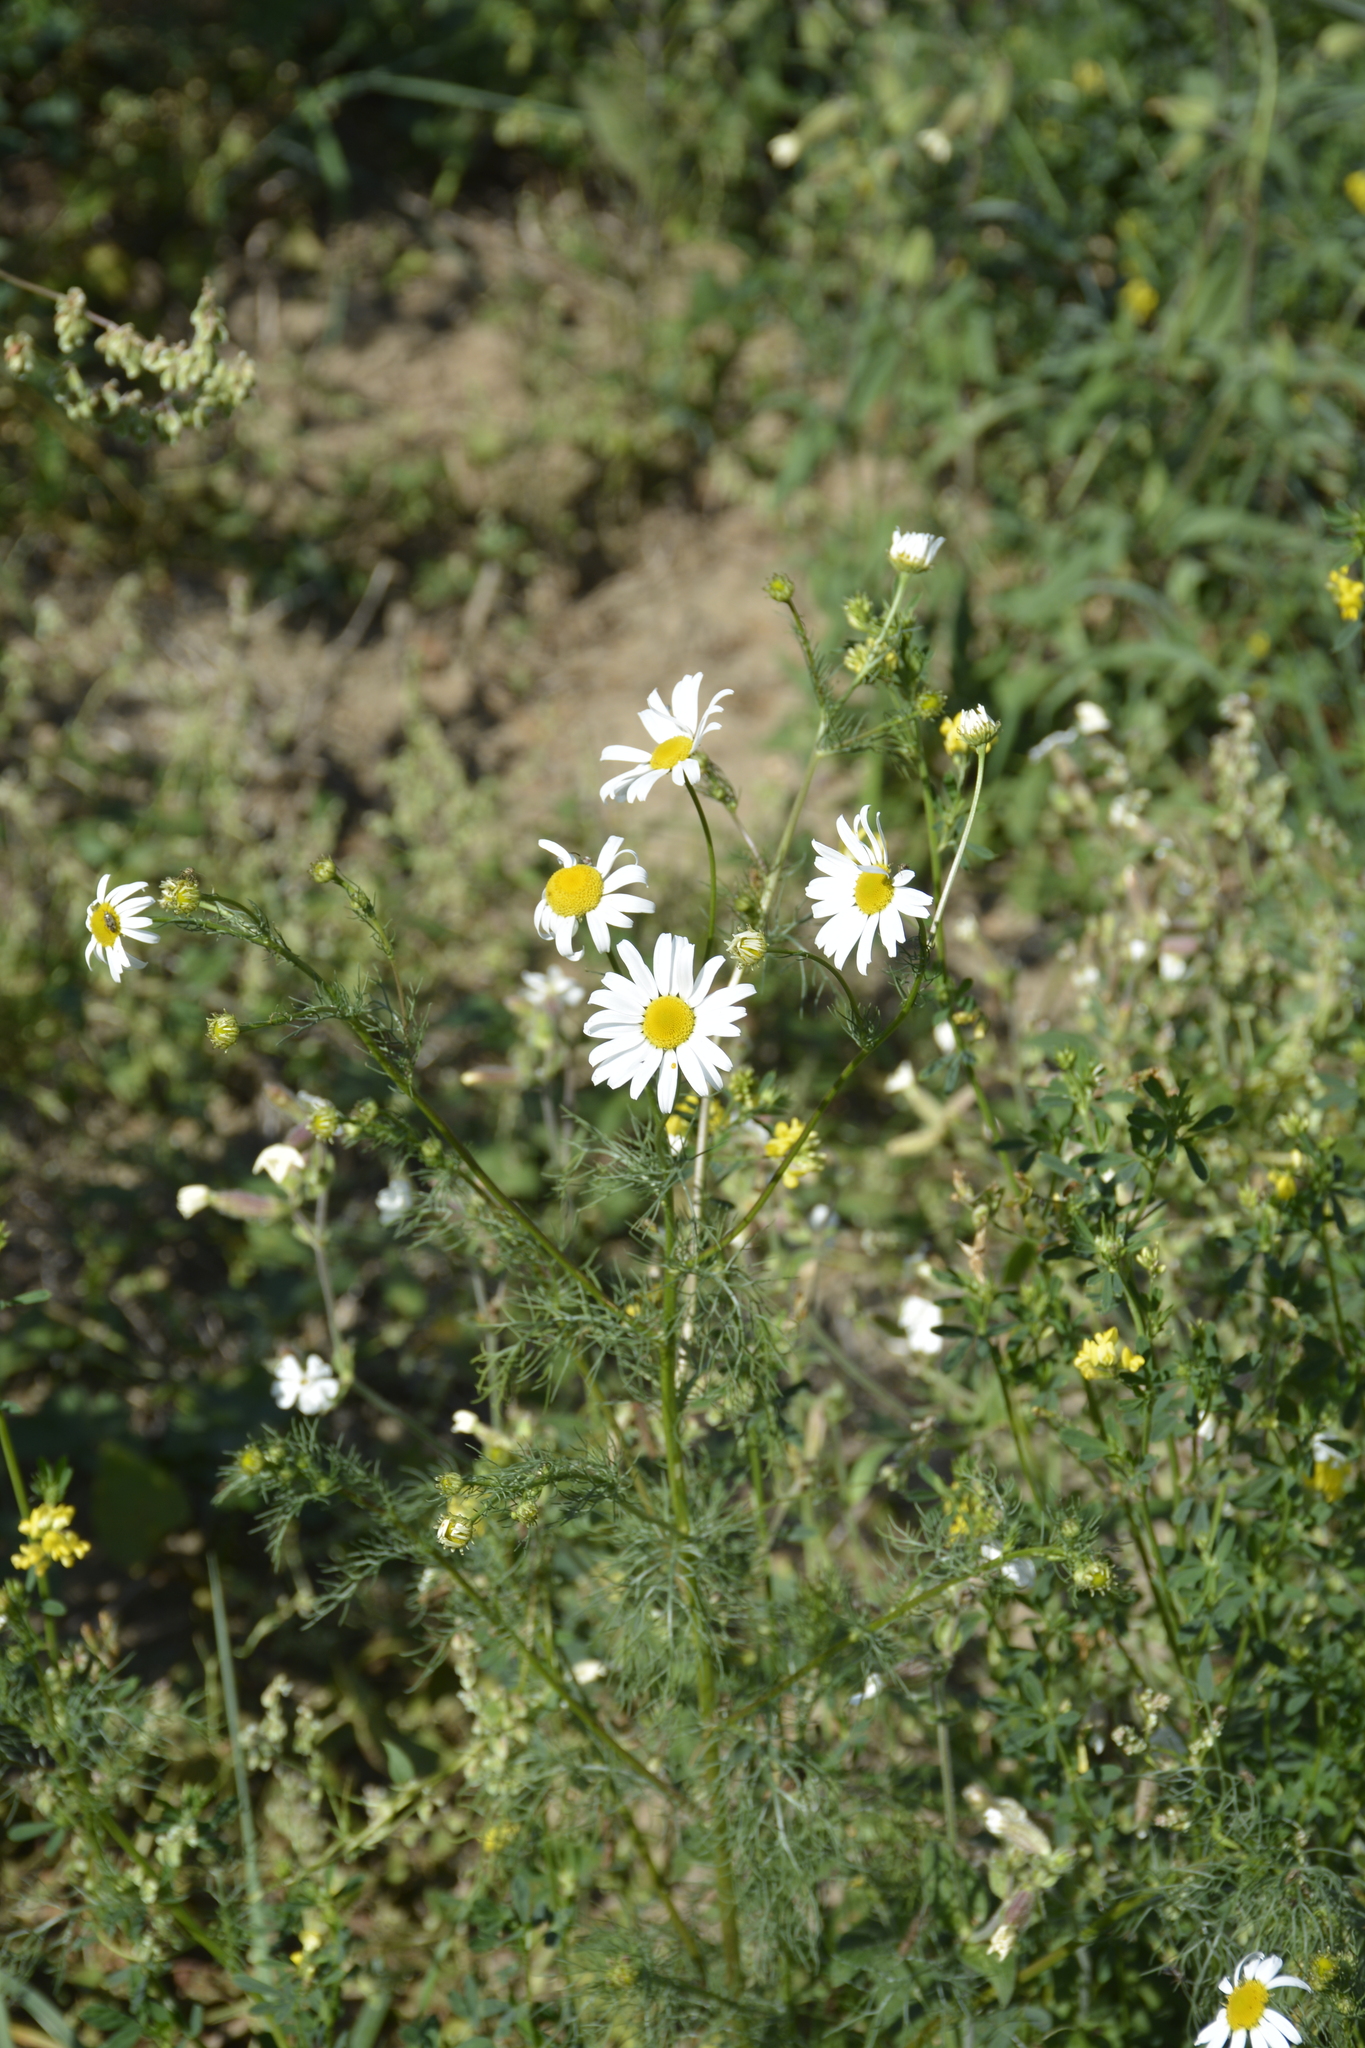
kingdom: Plantae
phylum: Tracheophyta
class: Magnoliopsida
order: Asterales
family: Asteraceae
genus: Tripleurospermum
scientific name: Tripleurospermum inodorum
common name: Scentless mayweed
